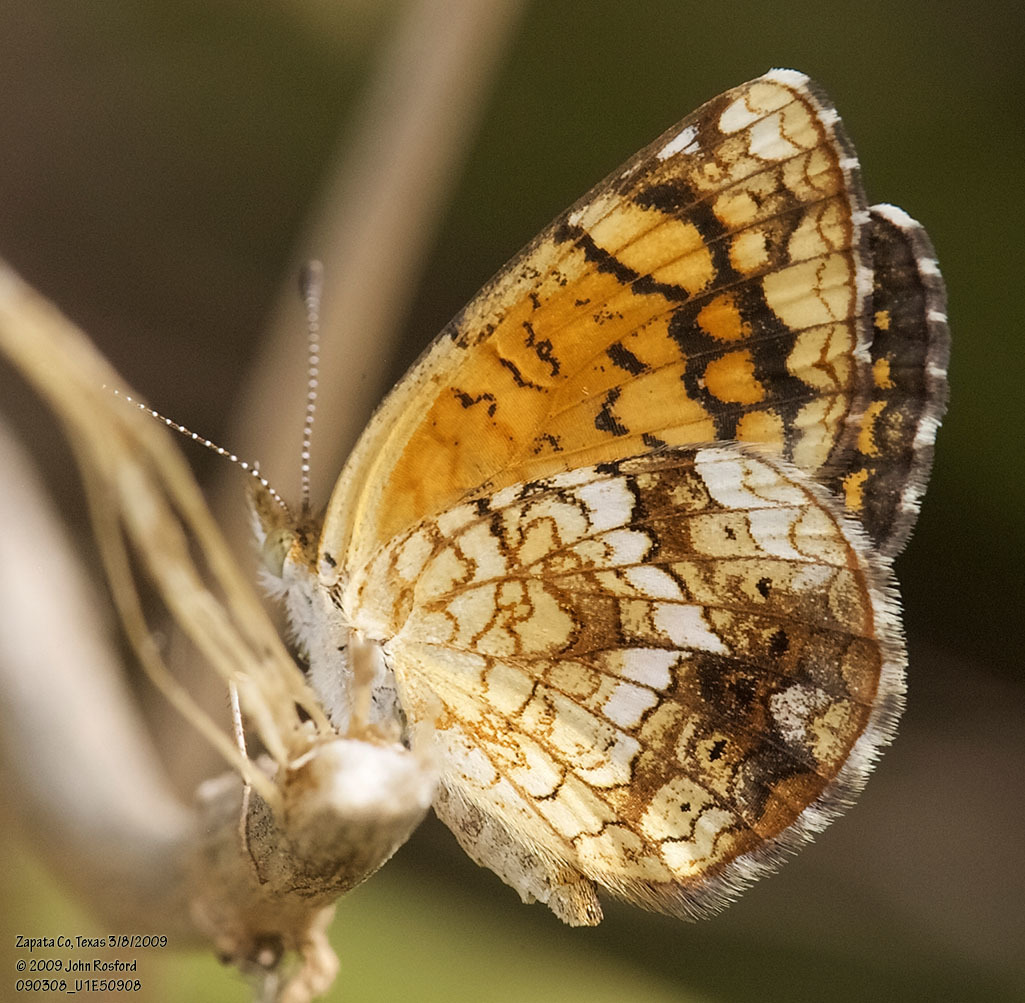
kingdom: Animalia
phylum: Arthropoda
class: Insecta
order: Lepidoptera
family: Nymphalidae
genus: Phyciodes
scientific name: Phyciodes vesta
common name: Vesta crescent
